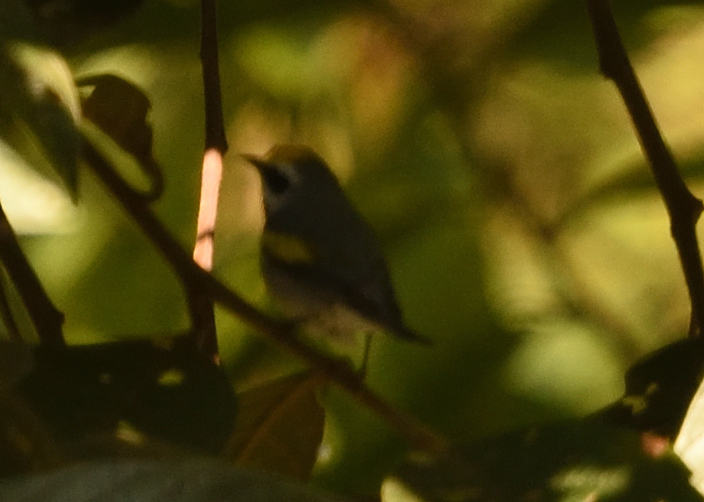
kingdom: Animalia
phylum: Chordata
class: Aves
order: Passeriformes
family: Parulidae
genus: Vermivora
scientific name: Vermivora chrysoptera
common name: Golden-winged warbler
